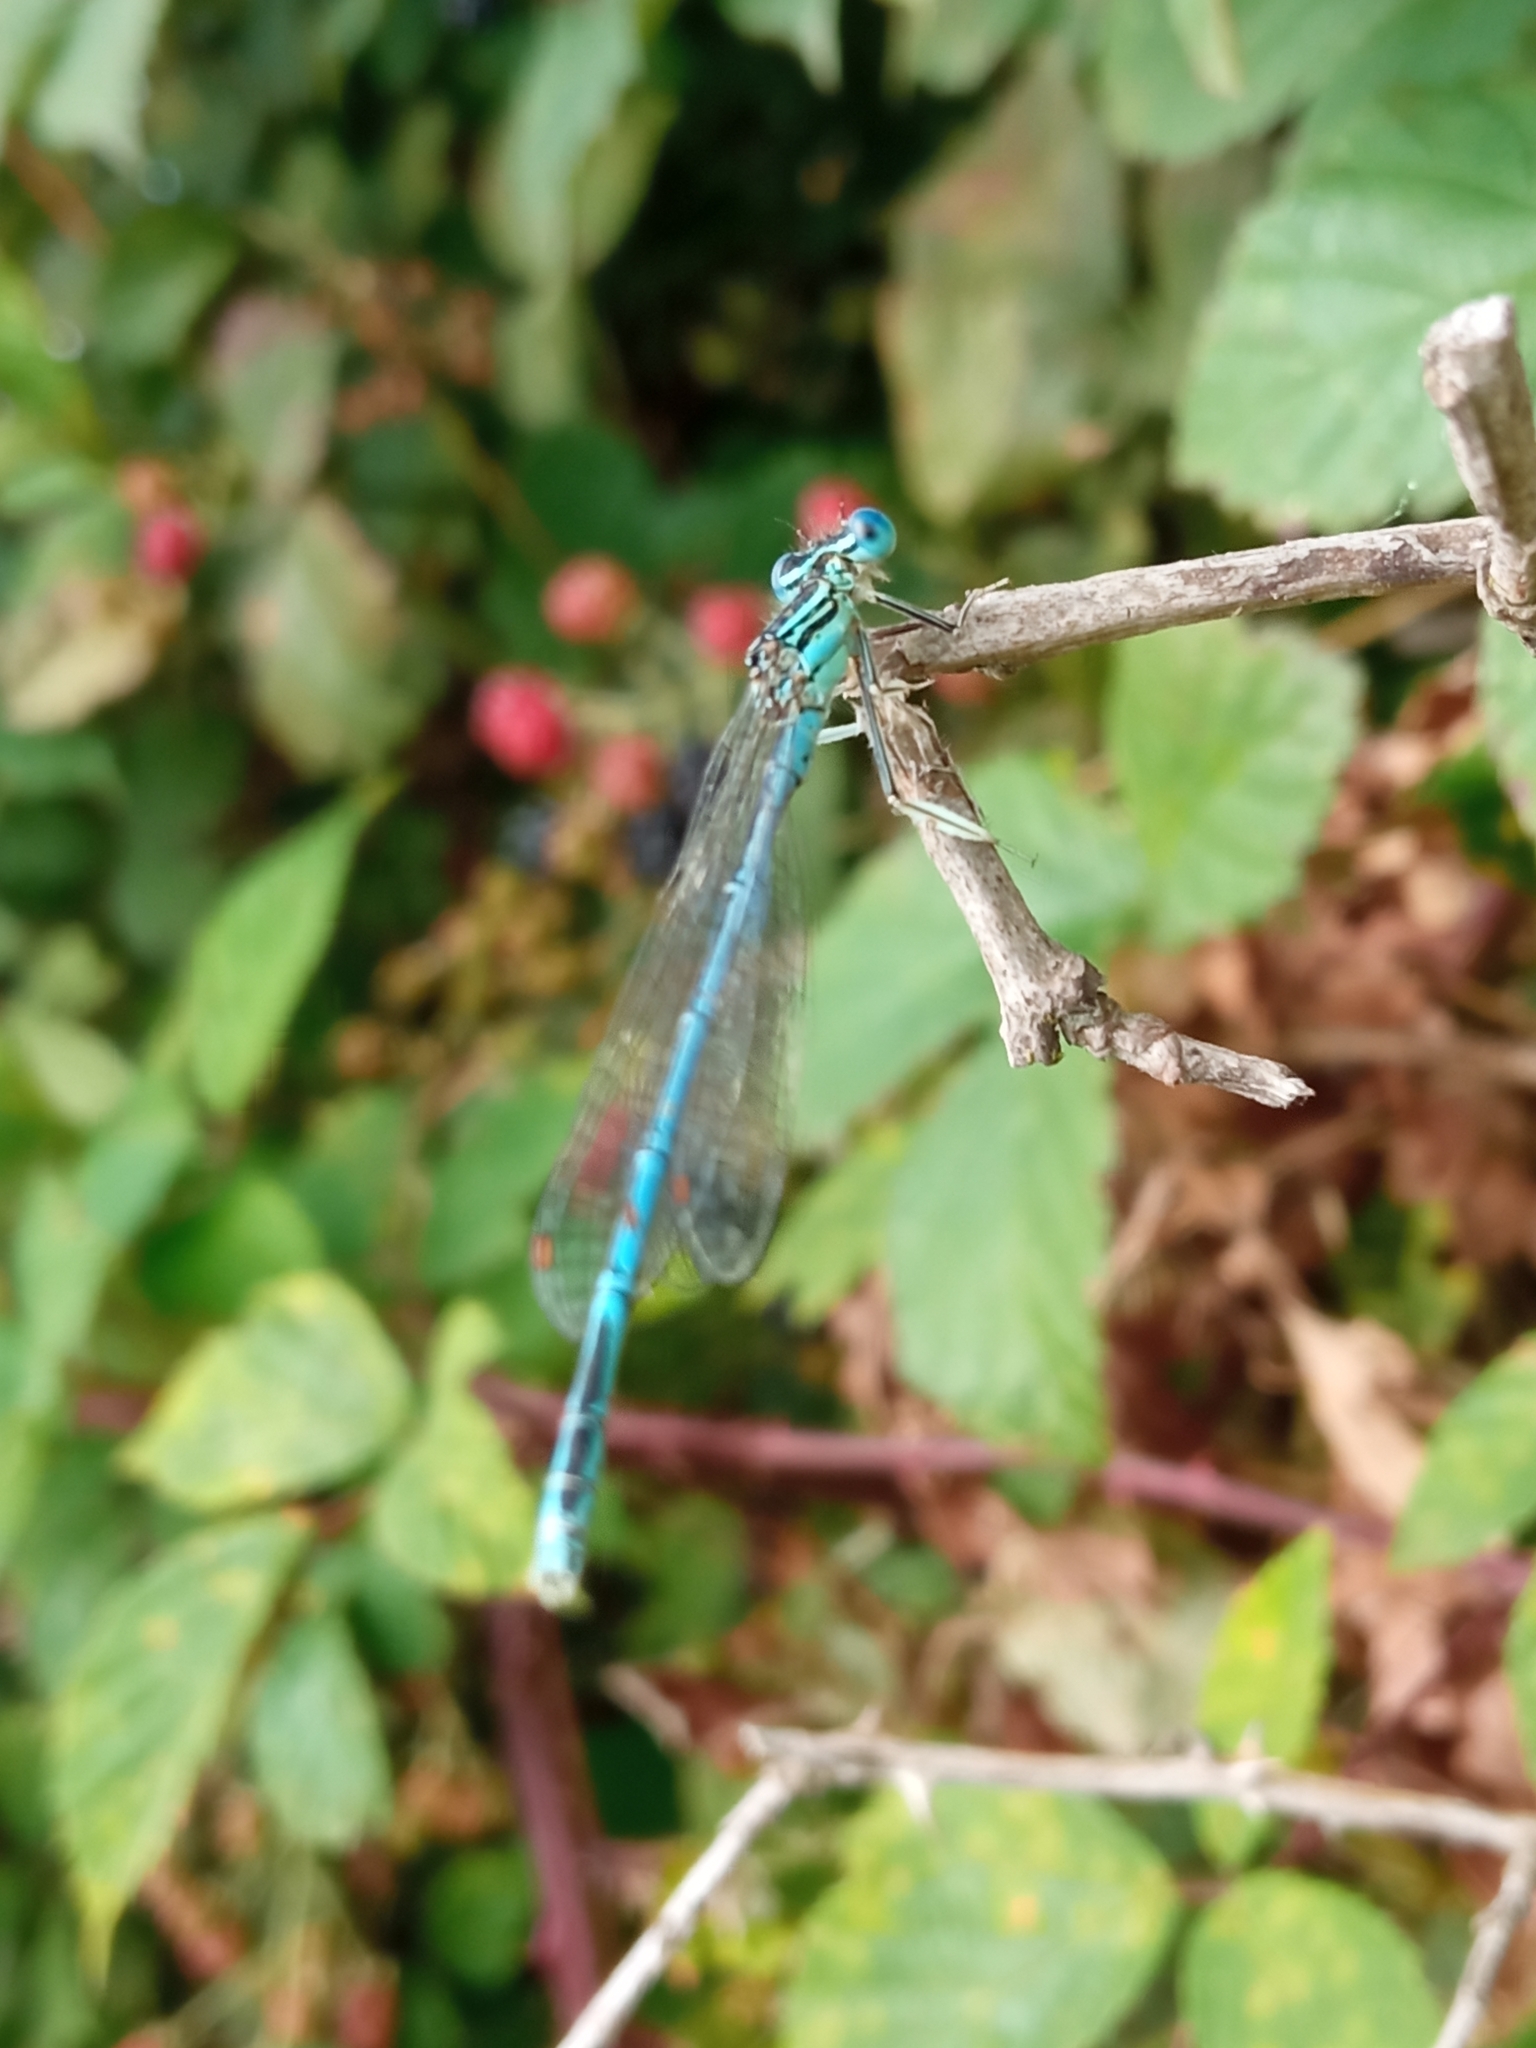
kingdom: Animalia
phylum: Arthropoda
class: Insecta
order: Odonata
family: Platycnemididae
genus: Platycnemis
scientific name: Platycnemis pennipes
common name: White-legged damselfly
